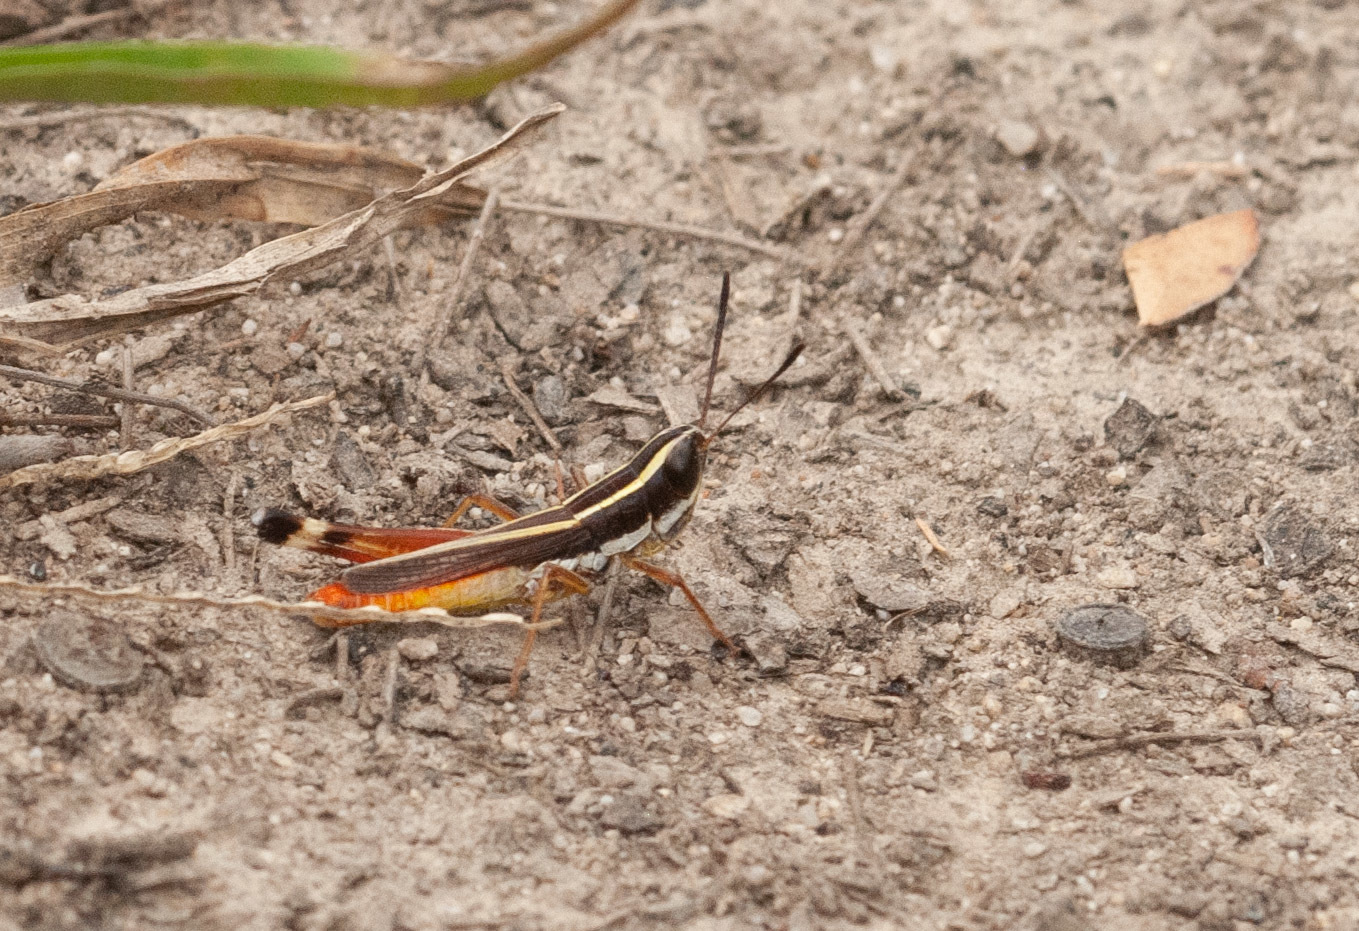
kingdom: Animalia
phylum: Arthropoda
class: Insecta
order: Orthoptera
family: Acrididae
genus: Macrotona
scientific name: Macrotona mjobergi
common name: Handsome macrotona
